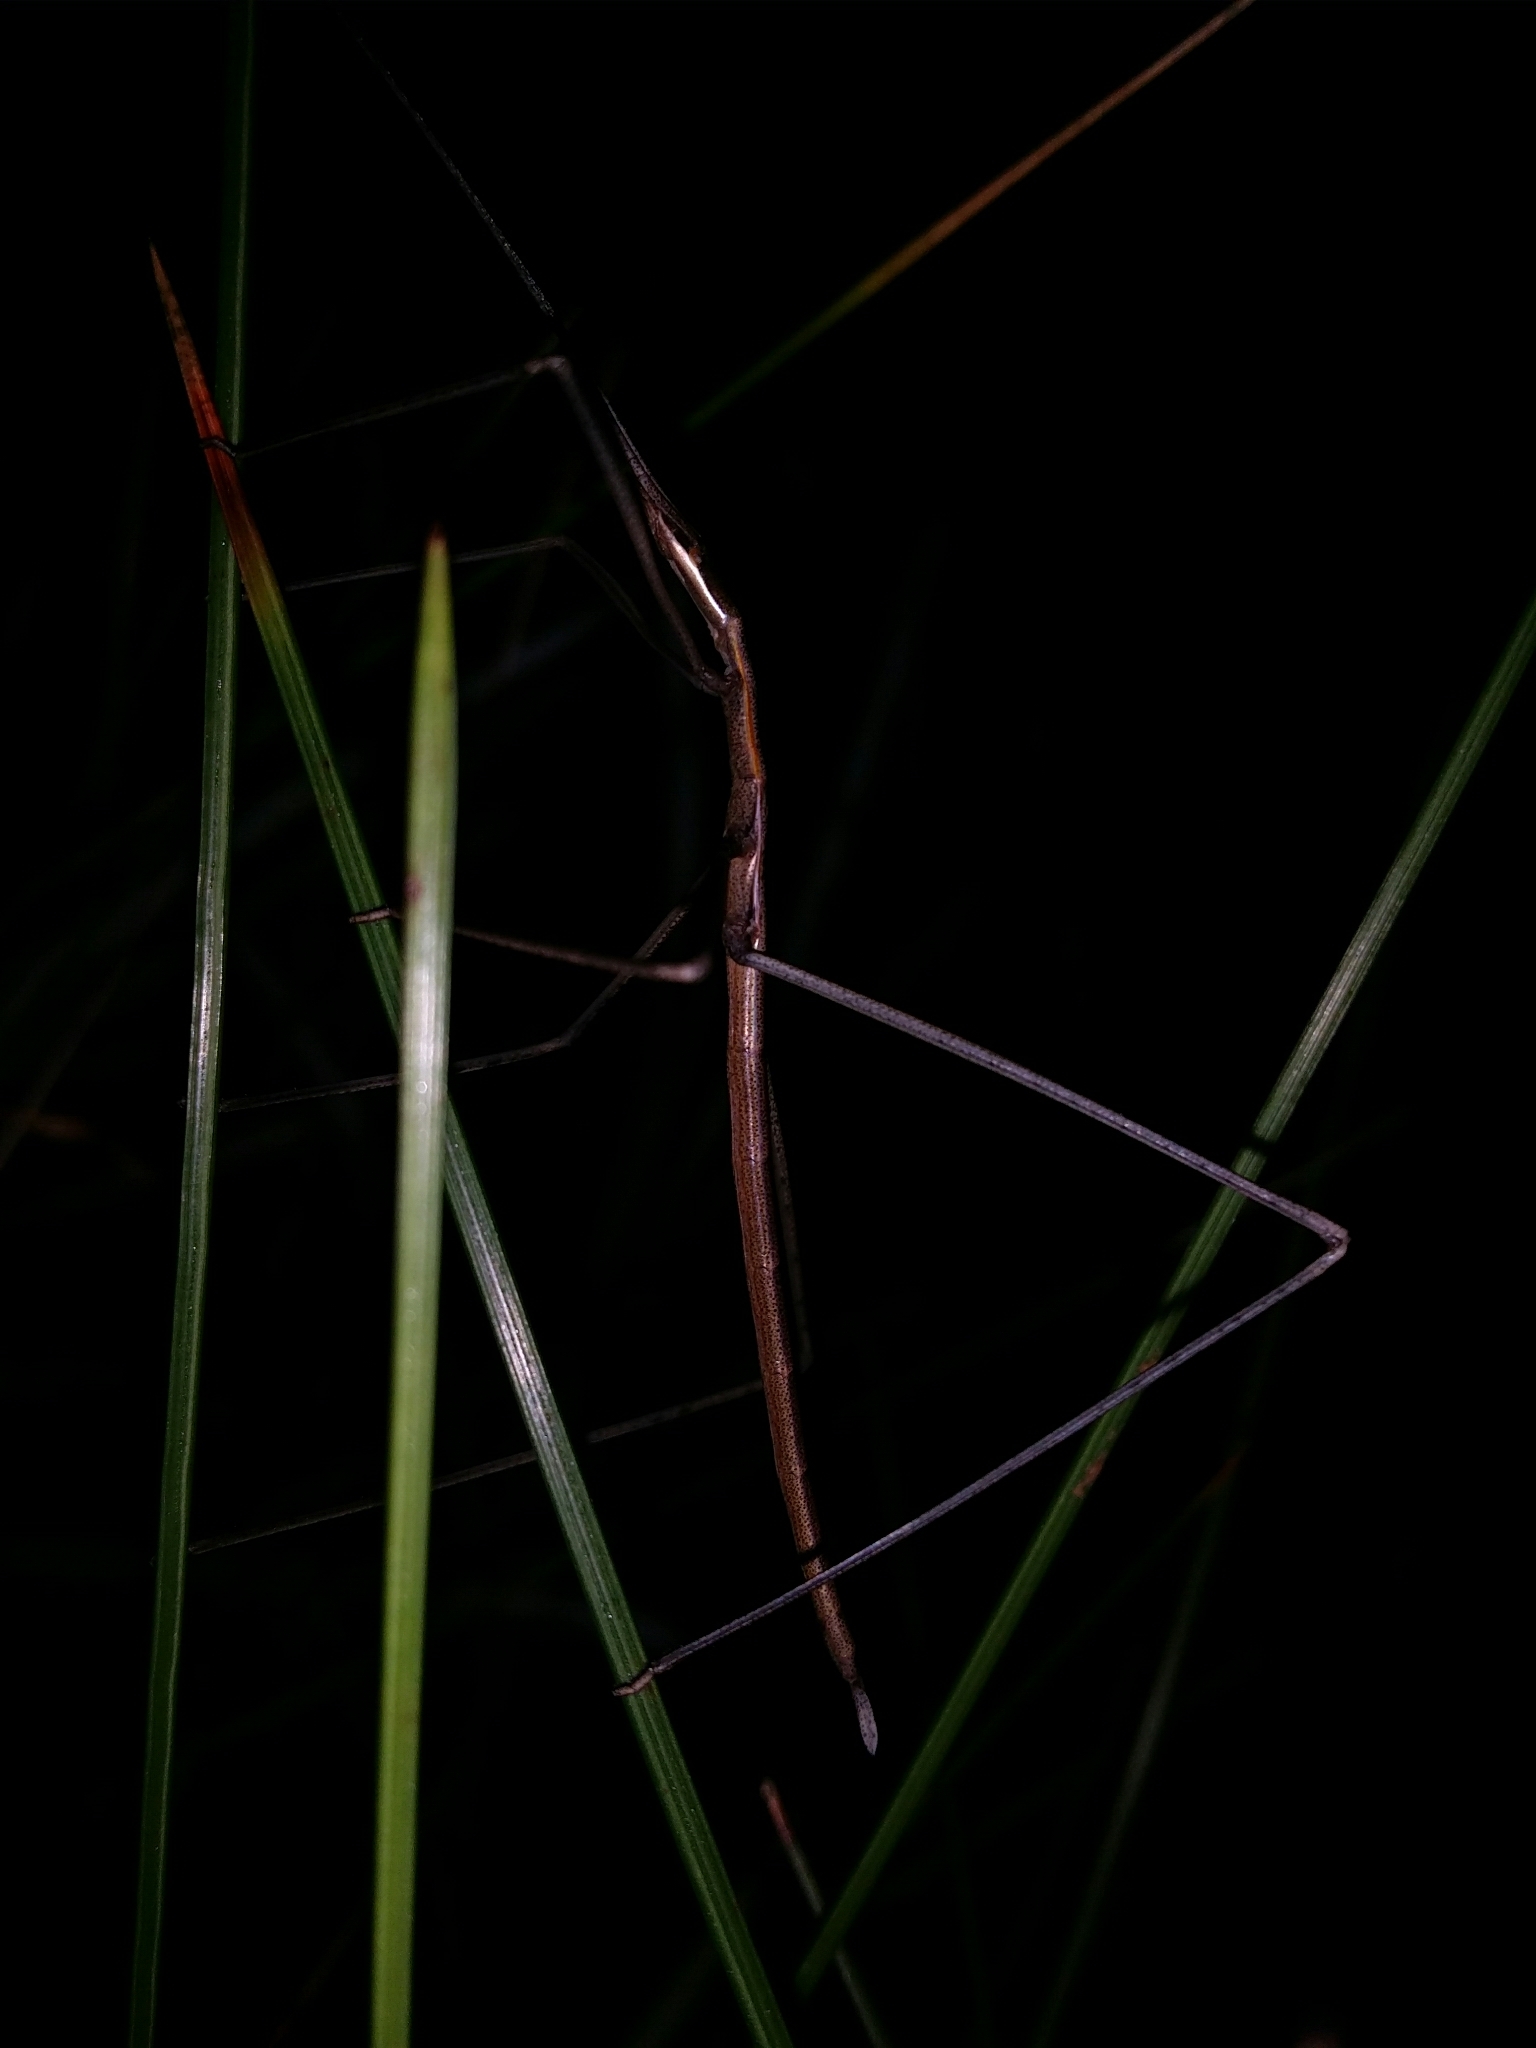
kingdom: Animalia
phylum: Arthropoda
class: Insecta
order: Orthoptera
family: Tettigoniidae
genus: Phasmodes
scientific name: Phasmodes ranatriformis
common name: King's park stick katydid
